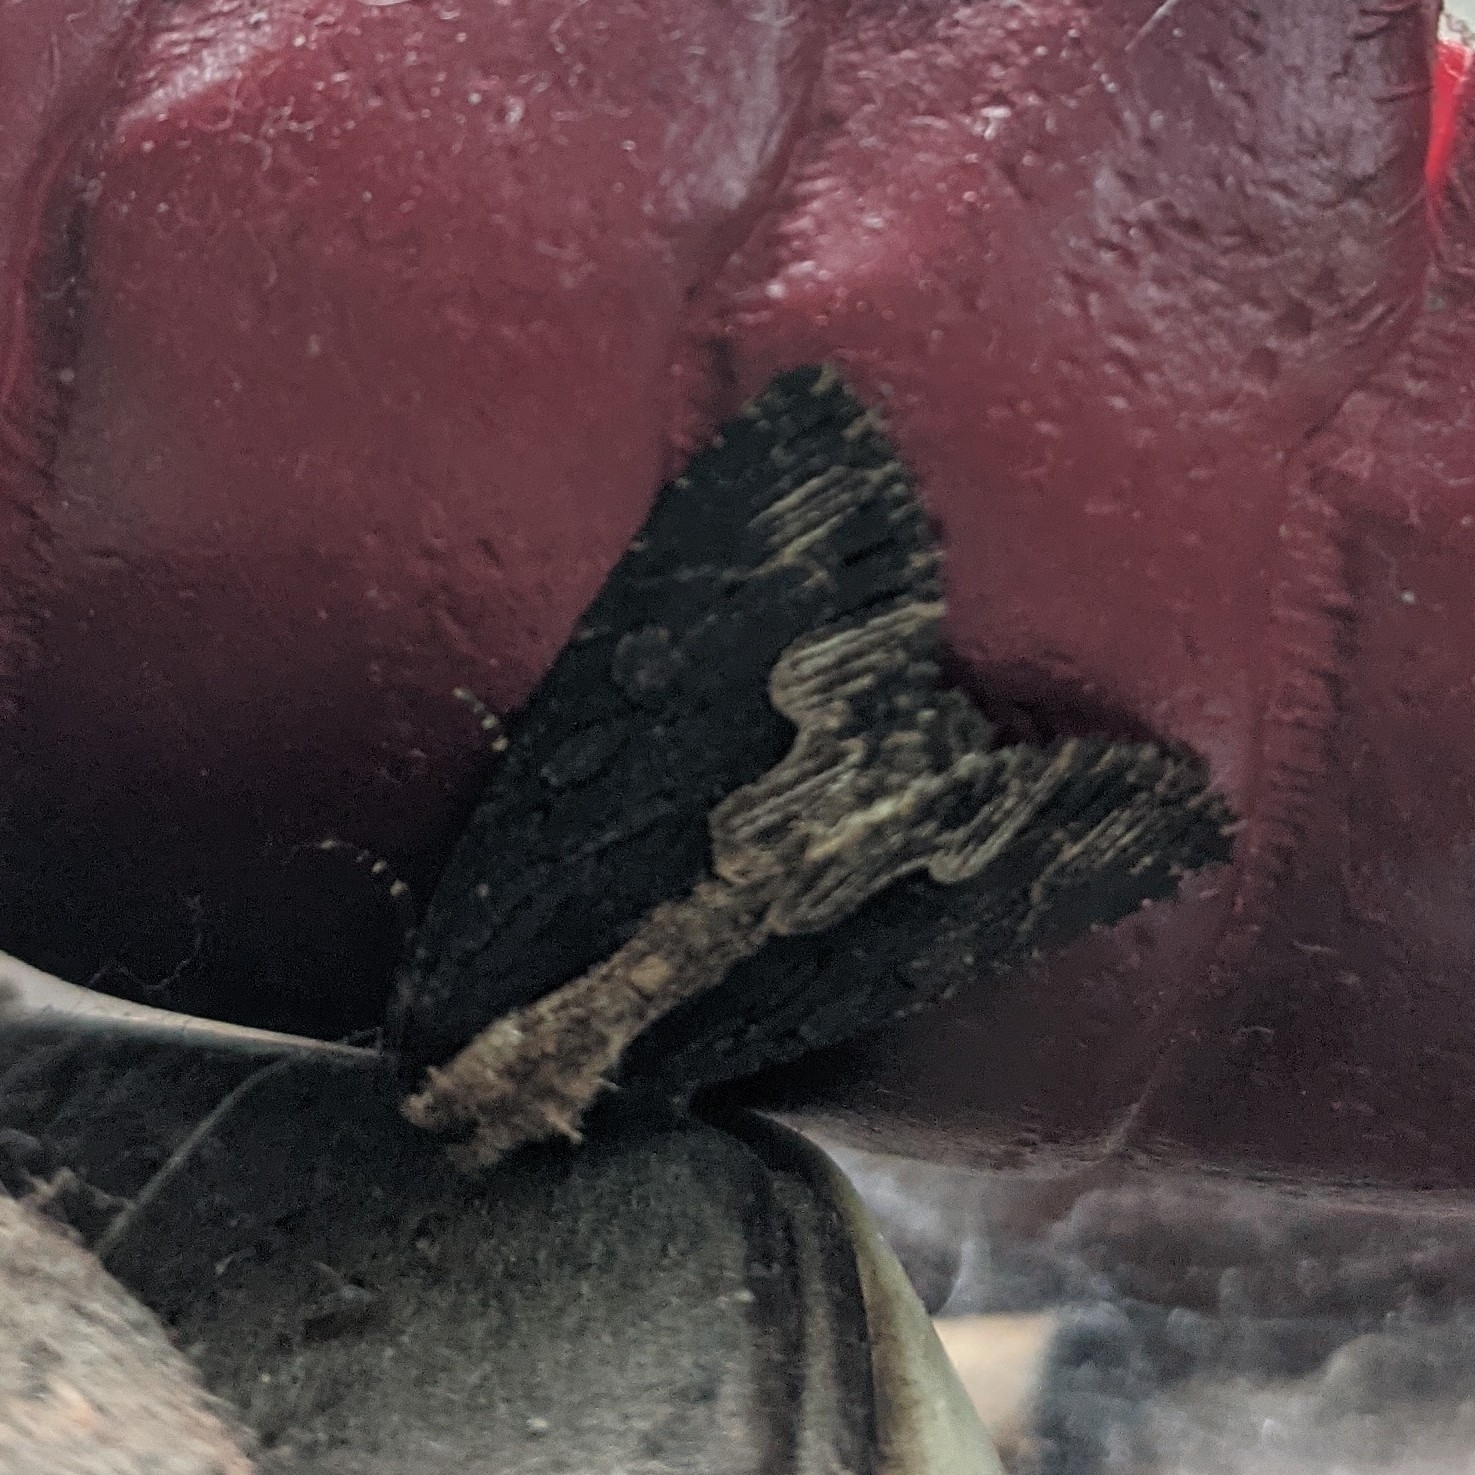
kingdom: Animalia
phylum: Arthropoda
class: Insecta
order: Lepidoptera
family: Noctuidae
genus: Dypterygia
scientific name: Dypterygia scabriuscula
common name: Bird's wing
